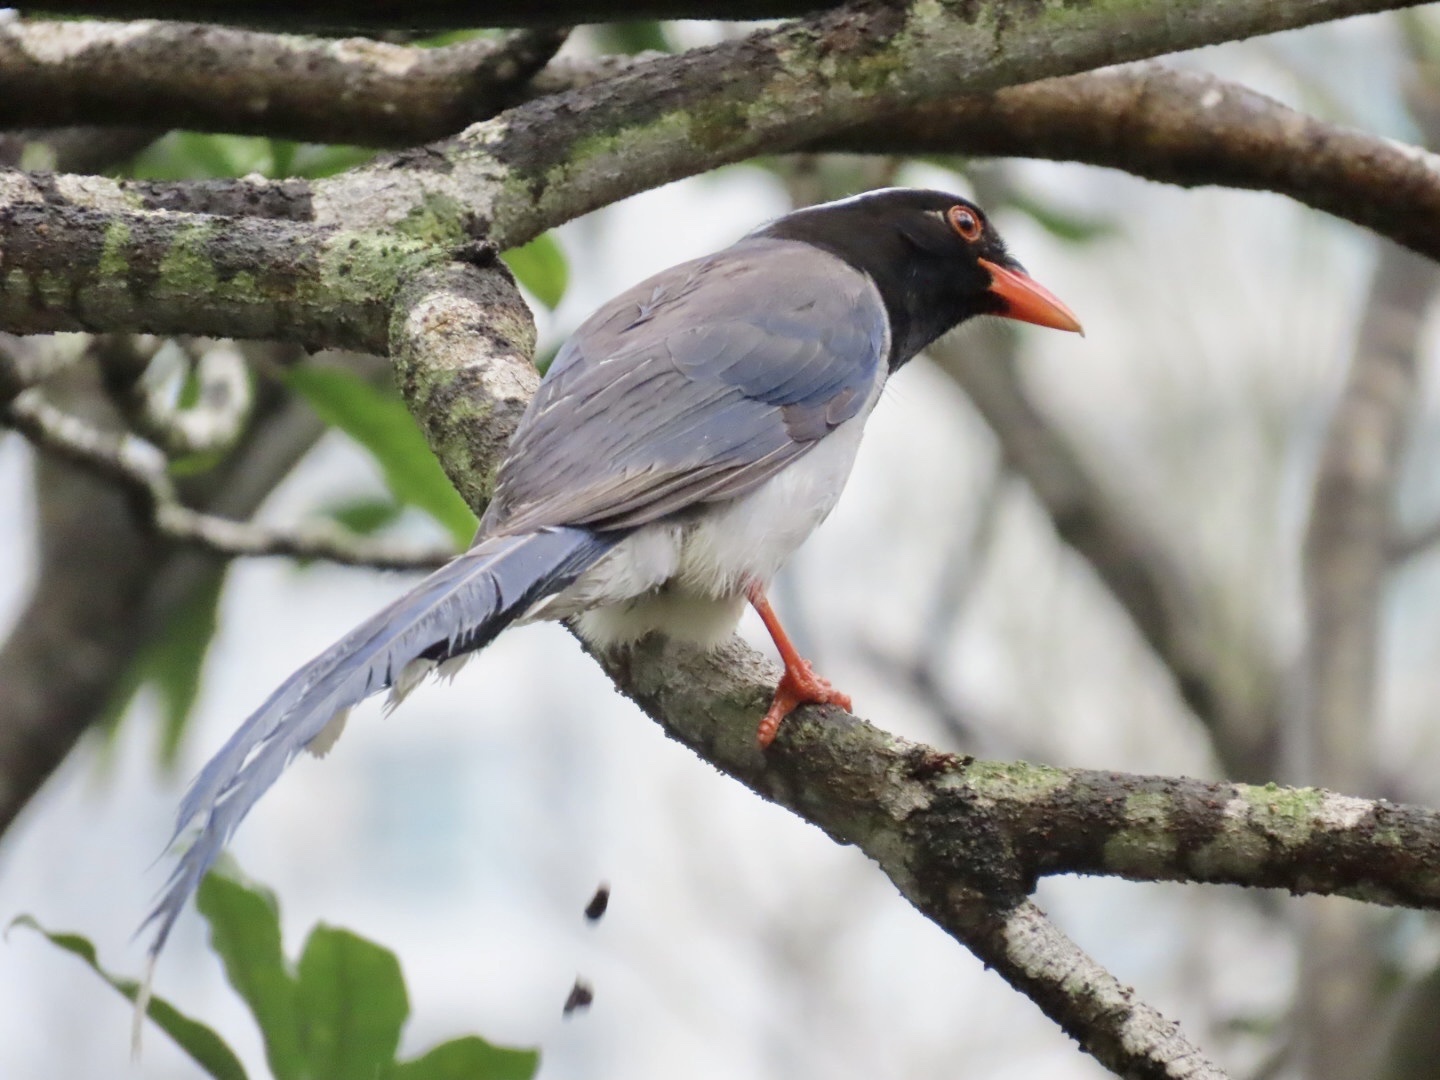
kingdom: Animalia
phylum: Chordata
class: Aves
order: Passeriformes
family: Corvidae
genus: Urocissa
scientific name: Urocissa erythroryncha
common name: Red-billed blue magpie
